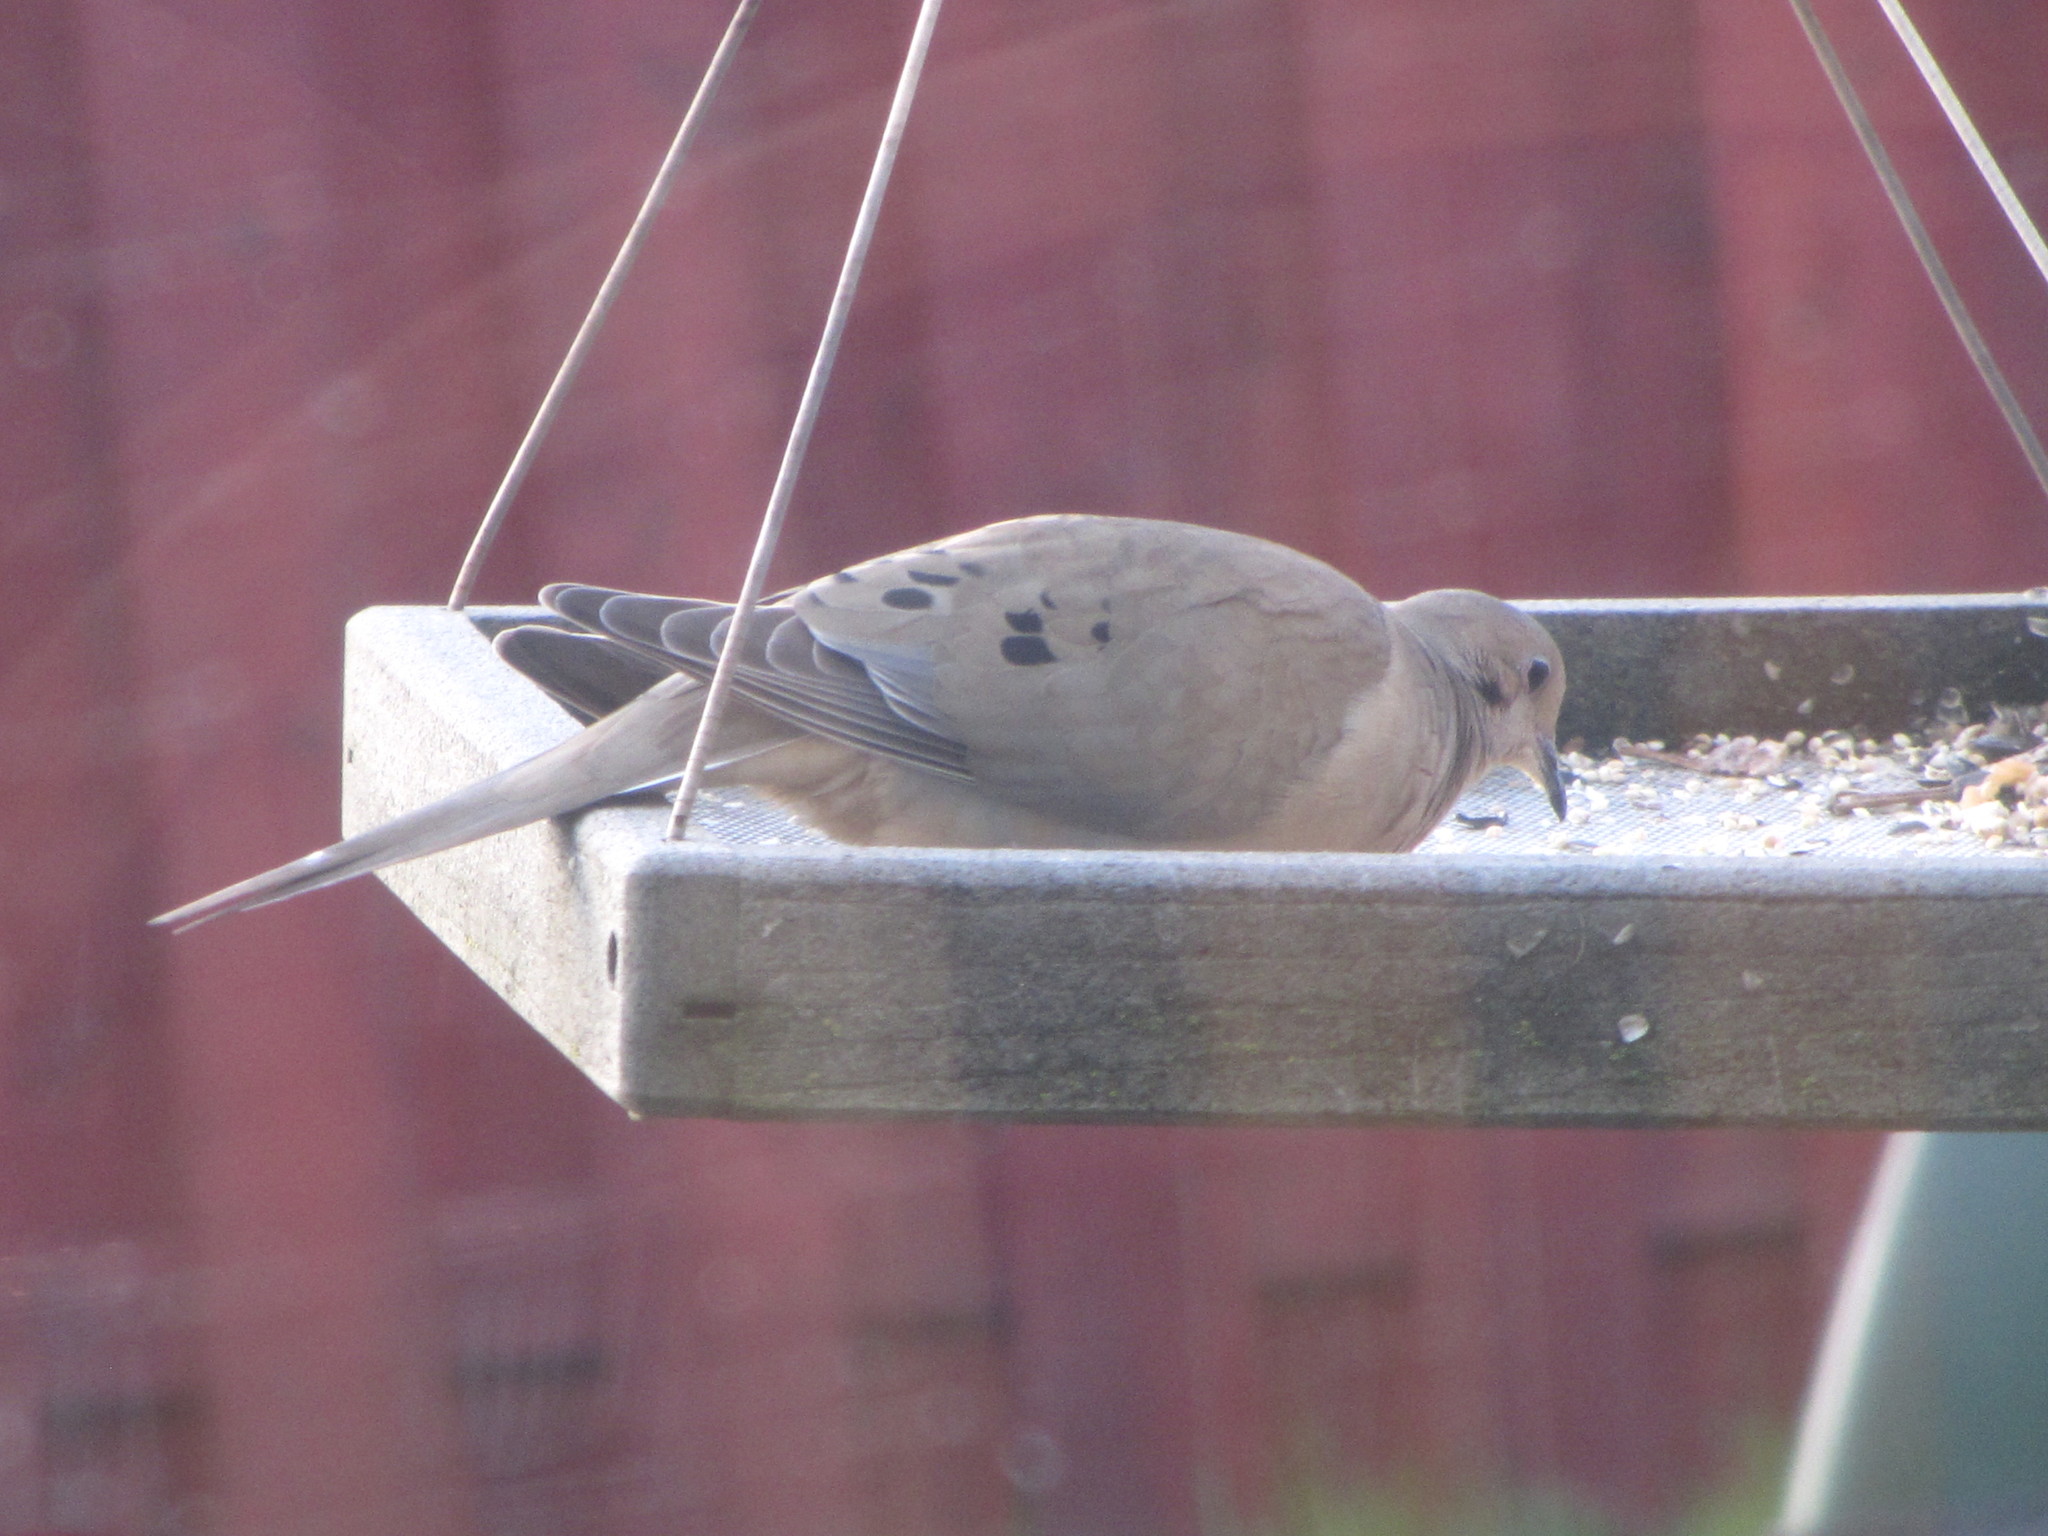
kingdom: Animalia
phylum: Chordata
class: Aves
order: Columbiformes
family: Columbidae
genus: Zenaida
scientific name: Zenaida macroura
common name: Mourning dove
